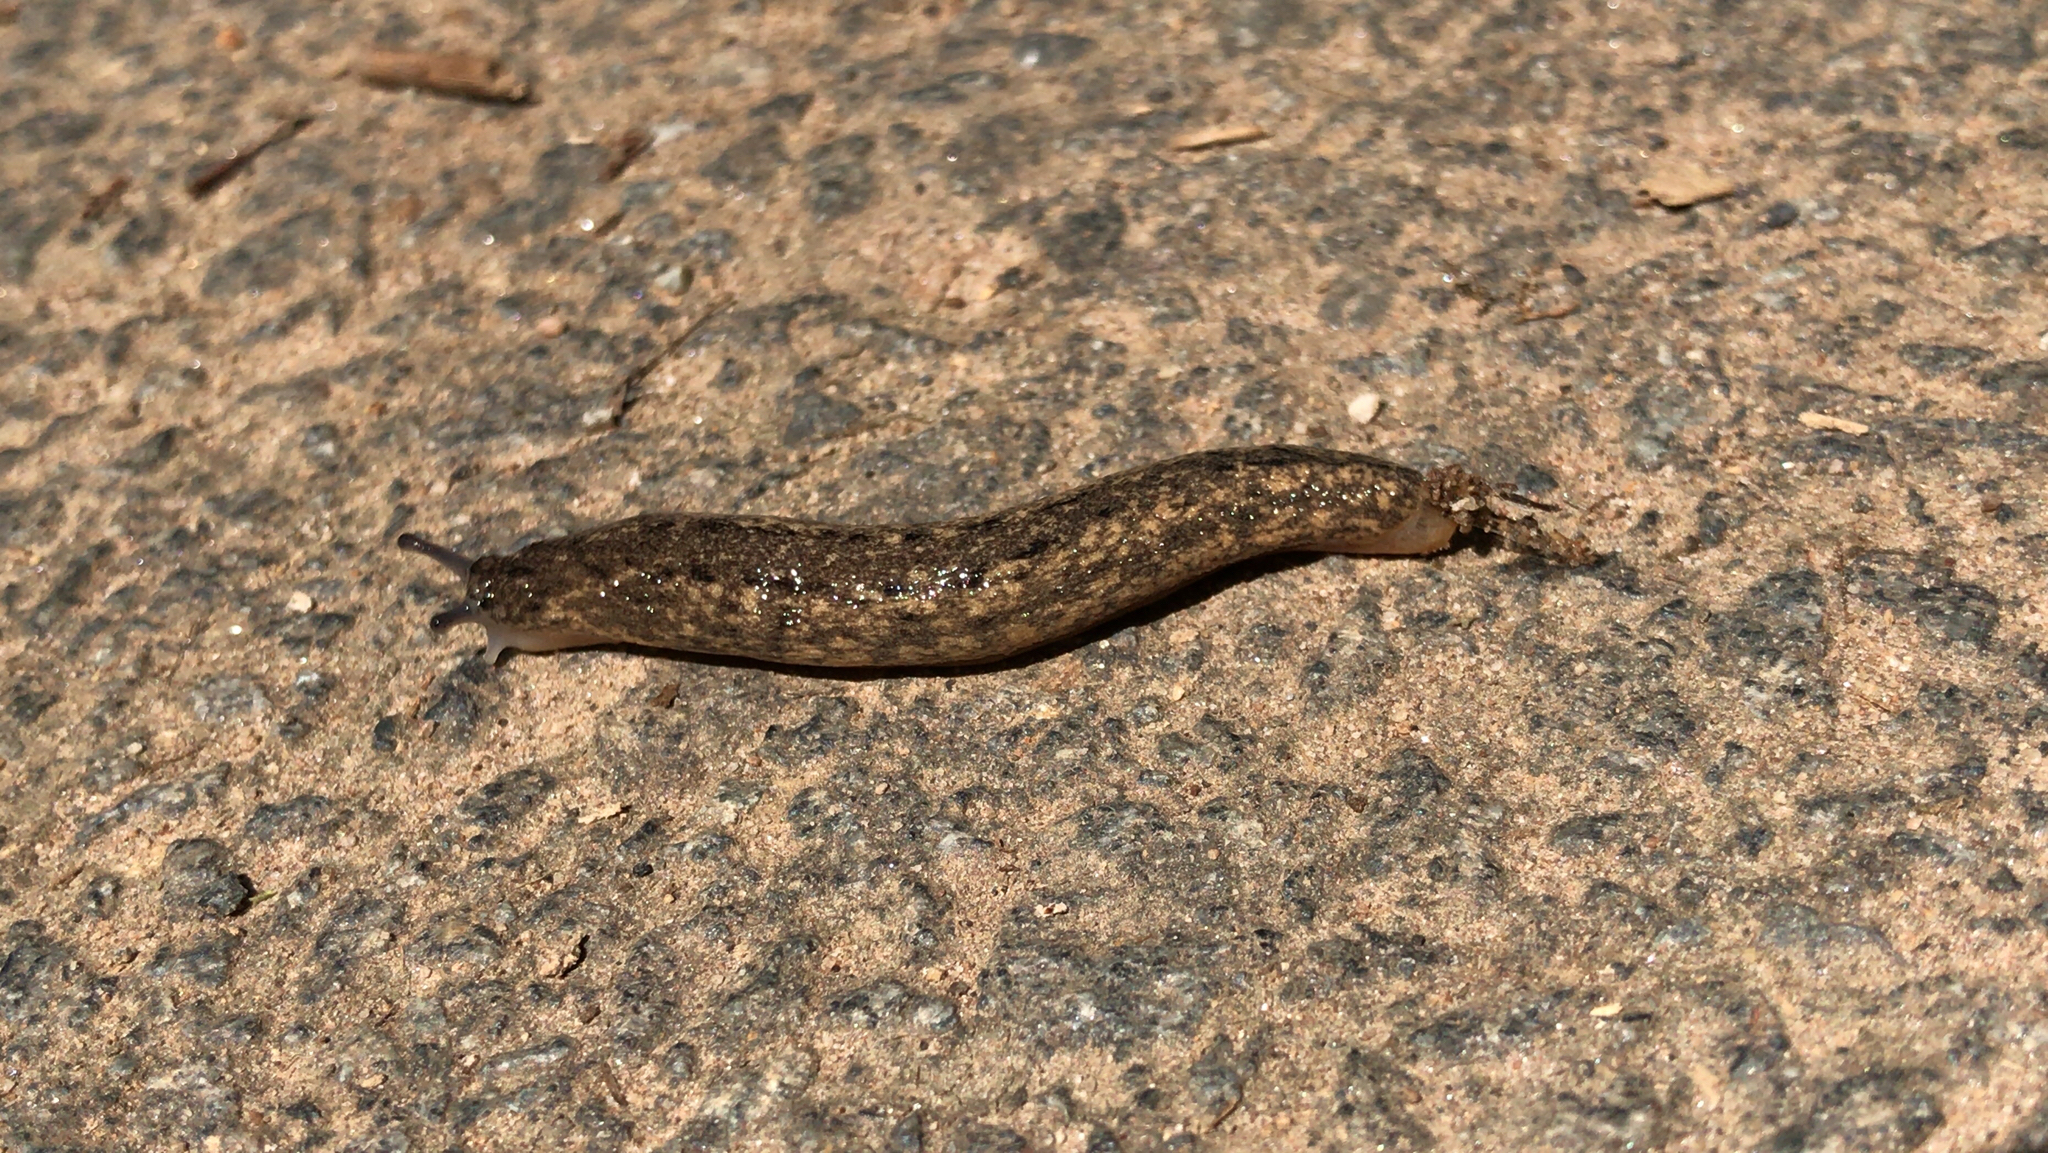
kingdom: Animalia
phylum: Mollusca
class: Gastropoda
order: Stylommatophora
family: Philomycidae
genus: Philomycus
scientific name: Philomycus carolinianus
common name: Carolina mantleslug
